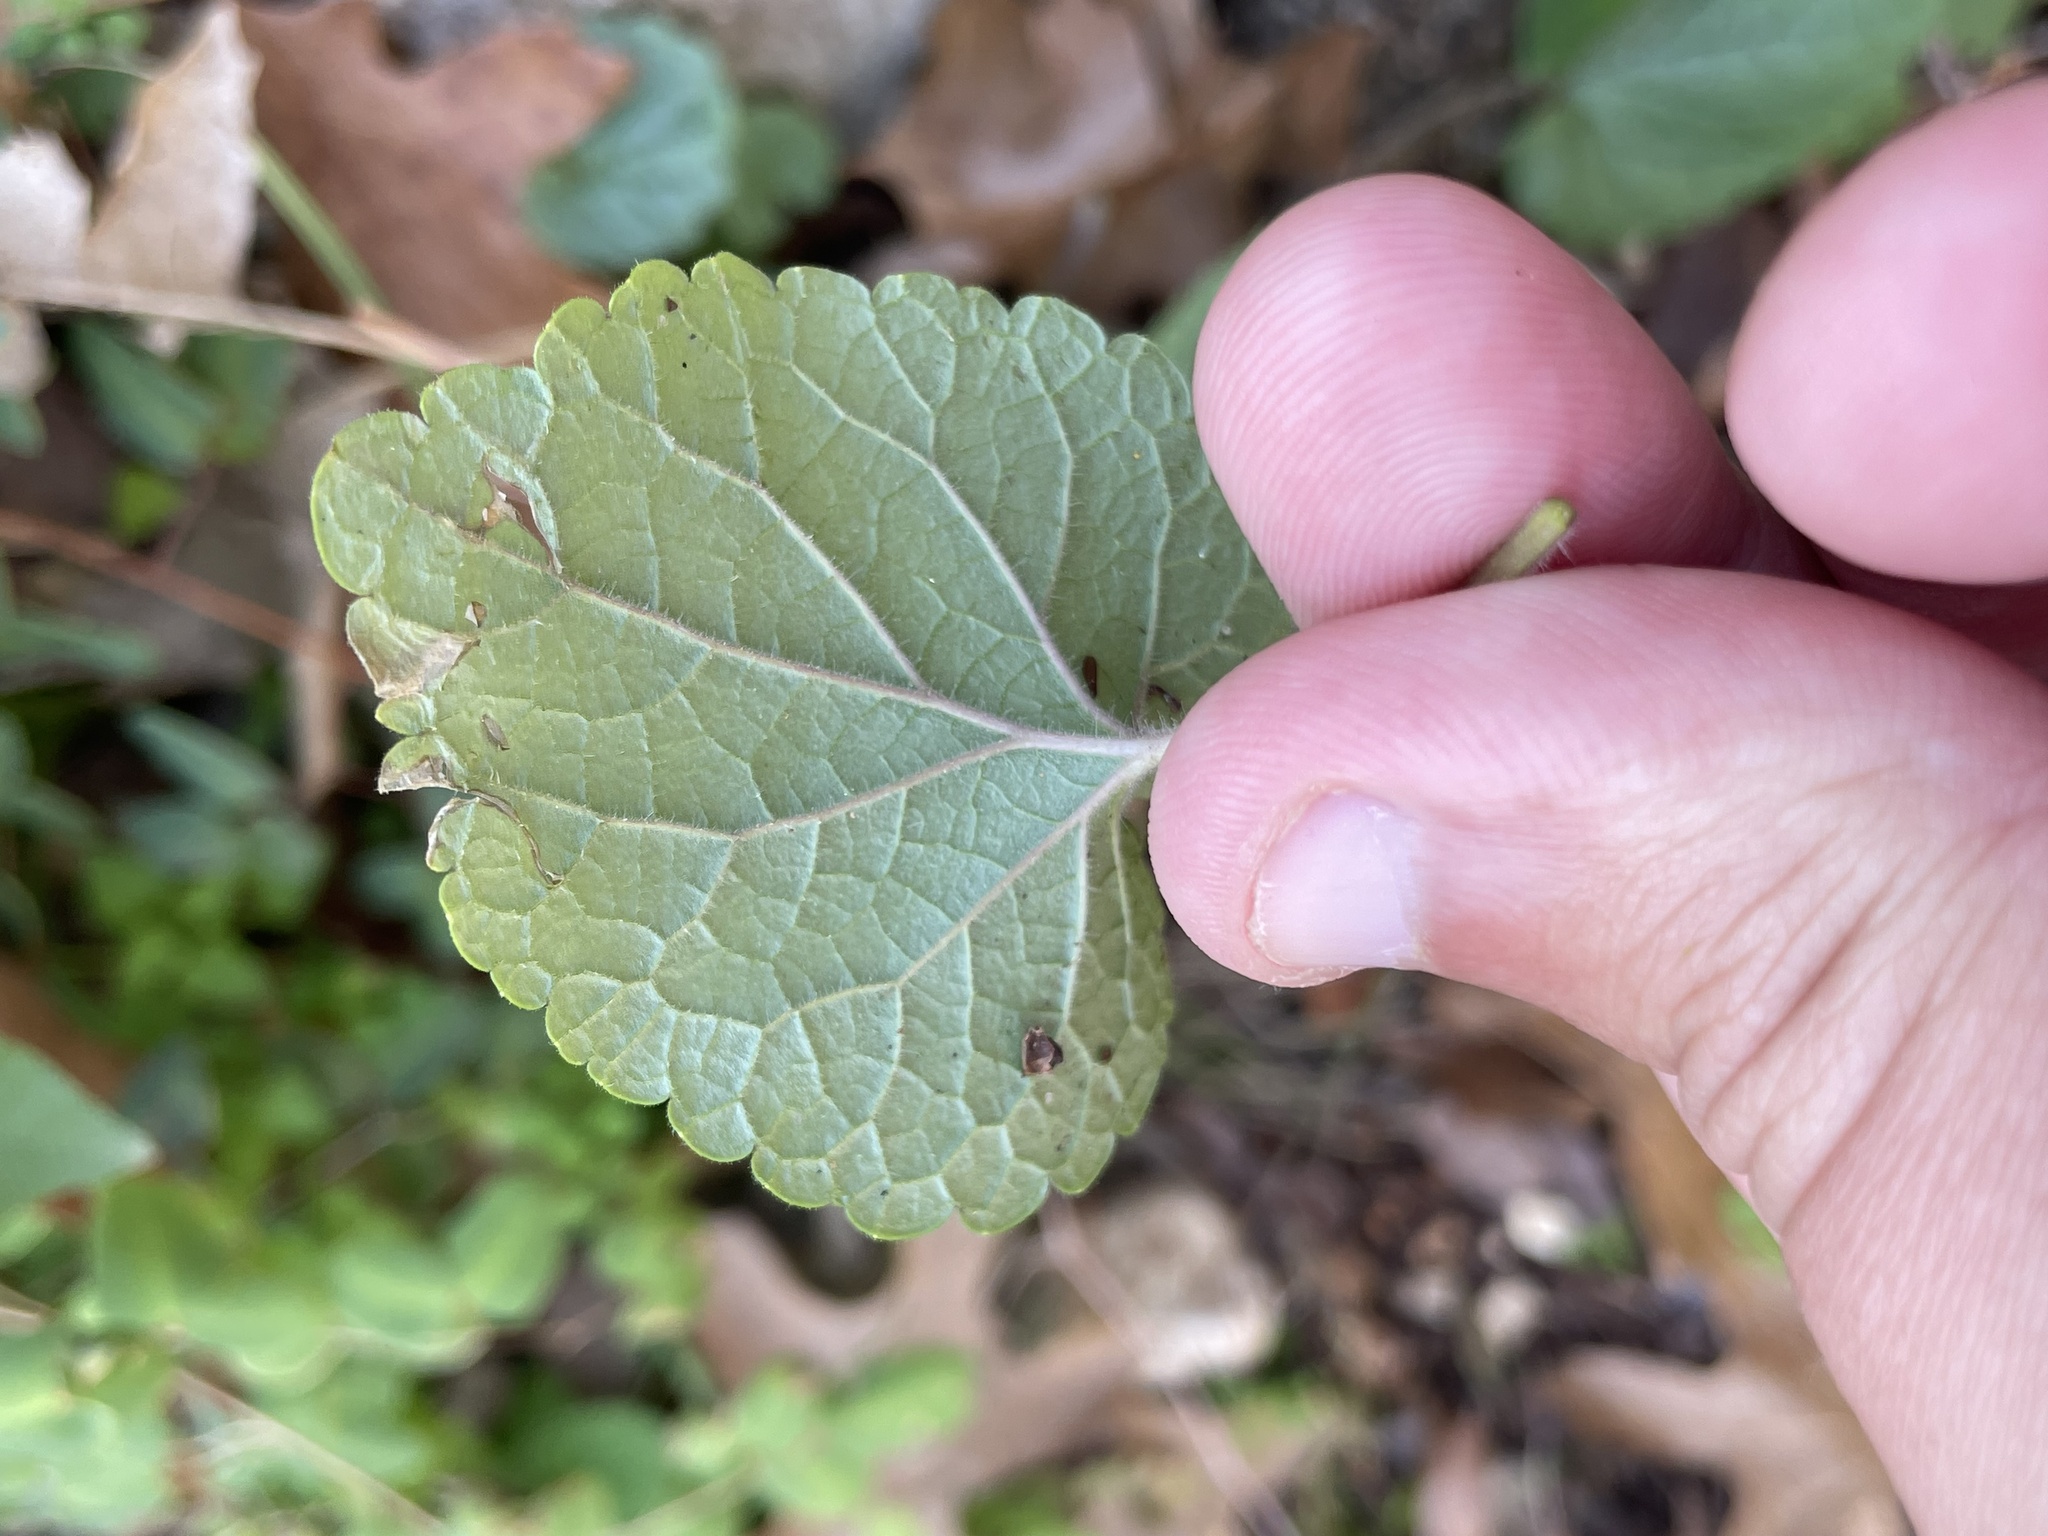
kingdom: Plantae
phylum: Tracheophyta
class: Magnoliopsida
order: Lamiales
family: Lamiaceae
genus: Scutellaria
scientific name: Scutellaria ovata
